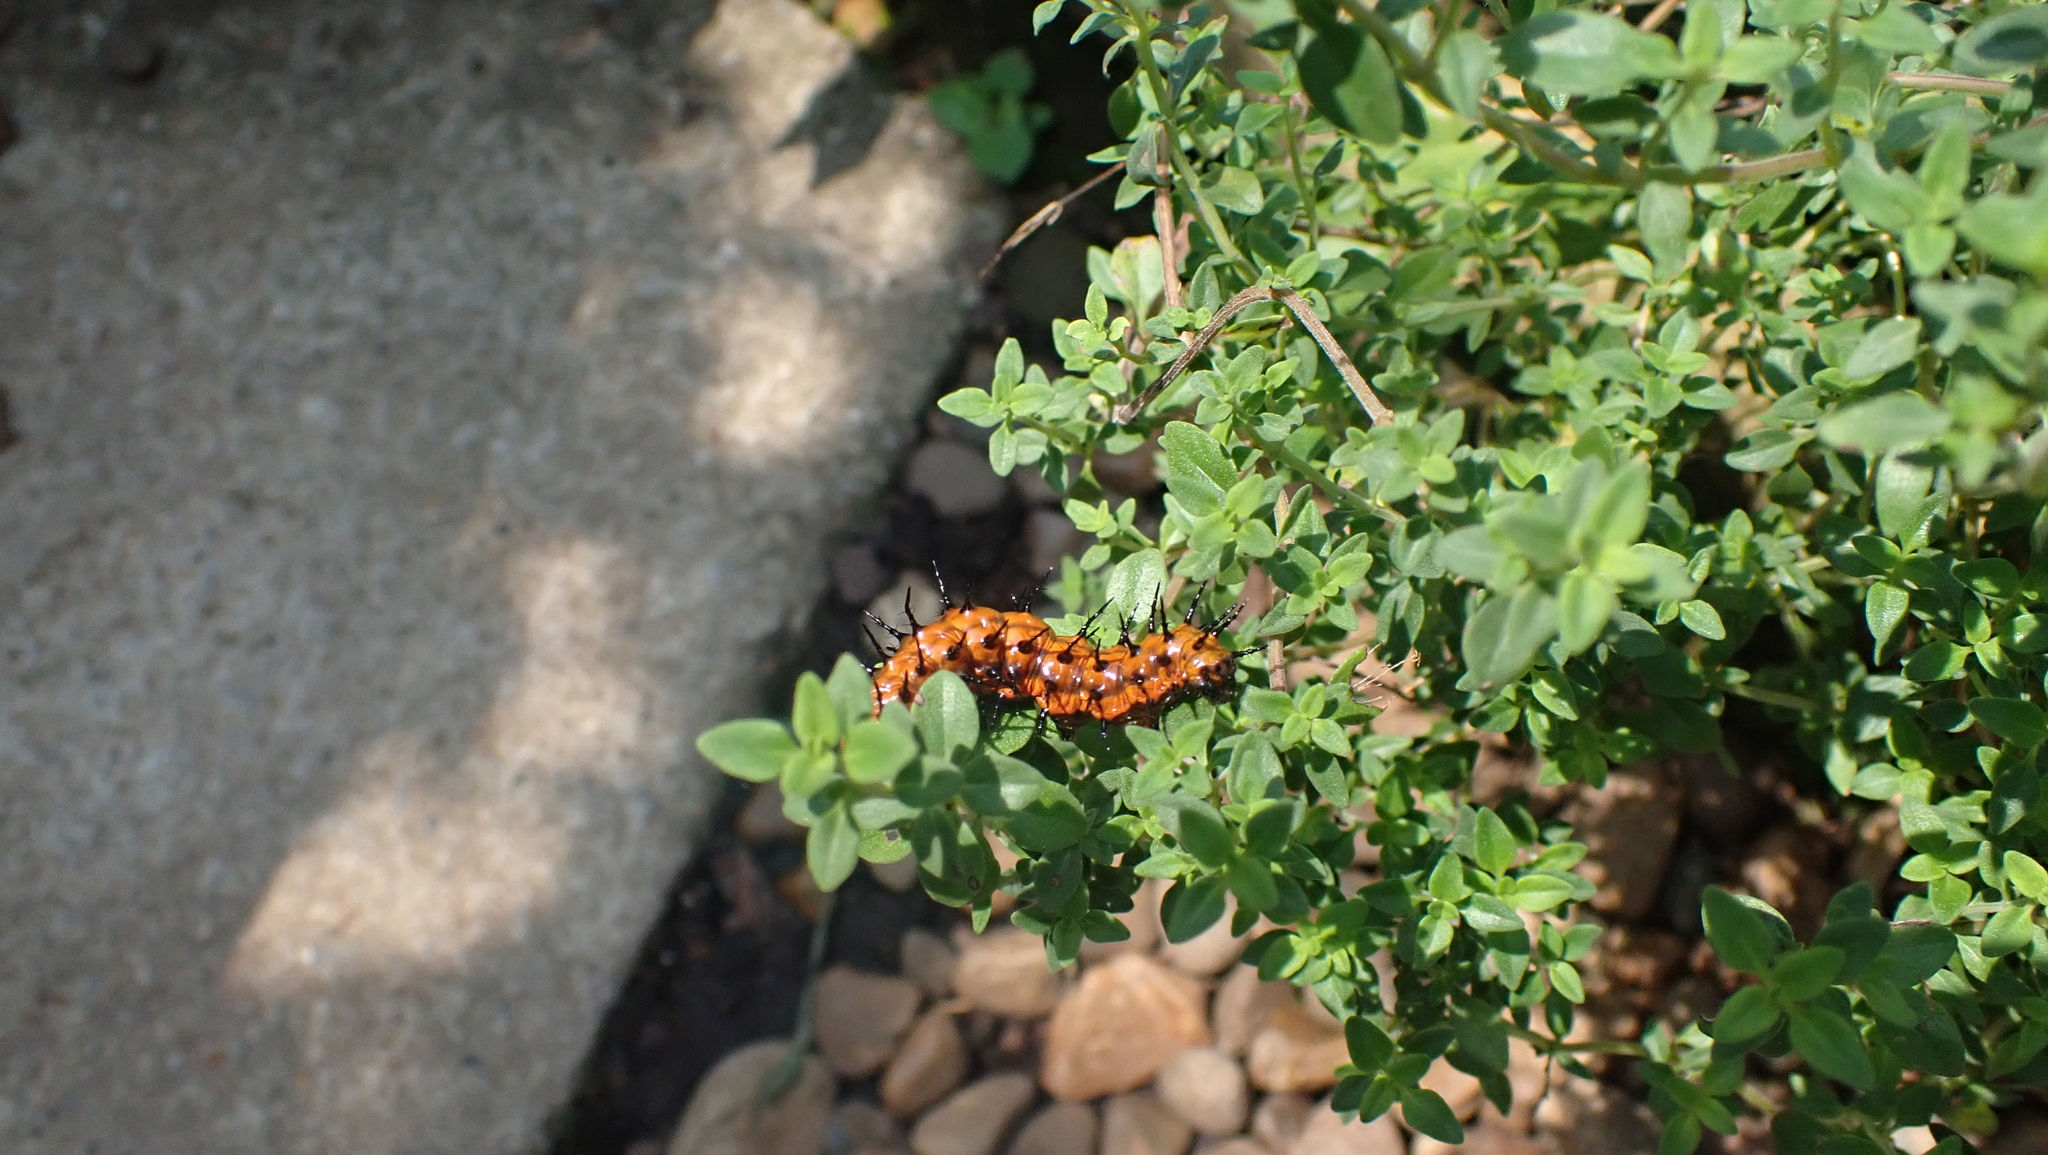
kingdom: Animalia
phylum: Arthropoda
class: Insecta
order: Lepidoptera
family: Nymphalidae
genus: Dione
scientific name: Dione vanillae
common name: Gulf fritillary
